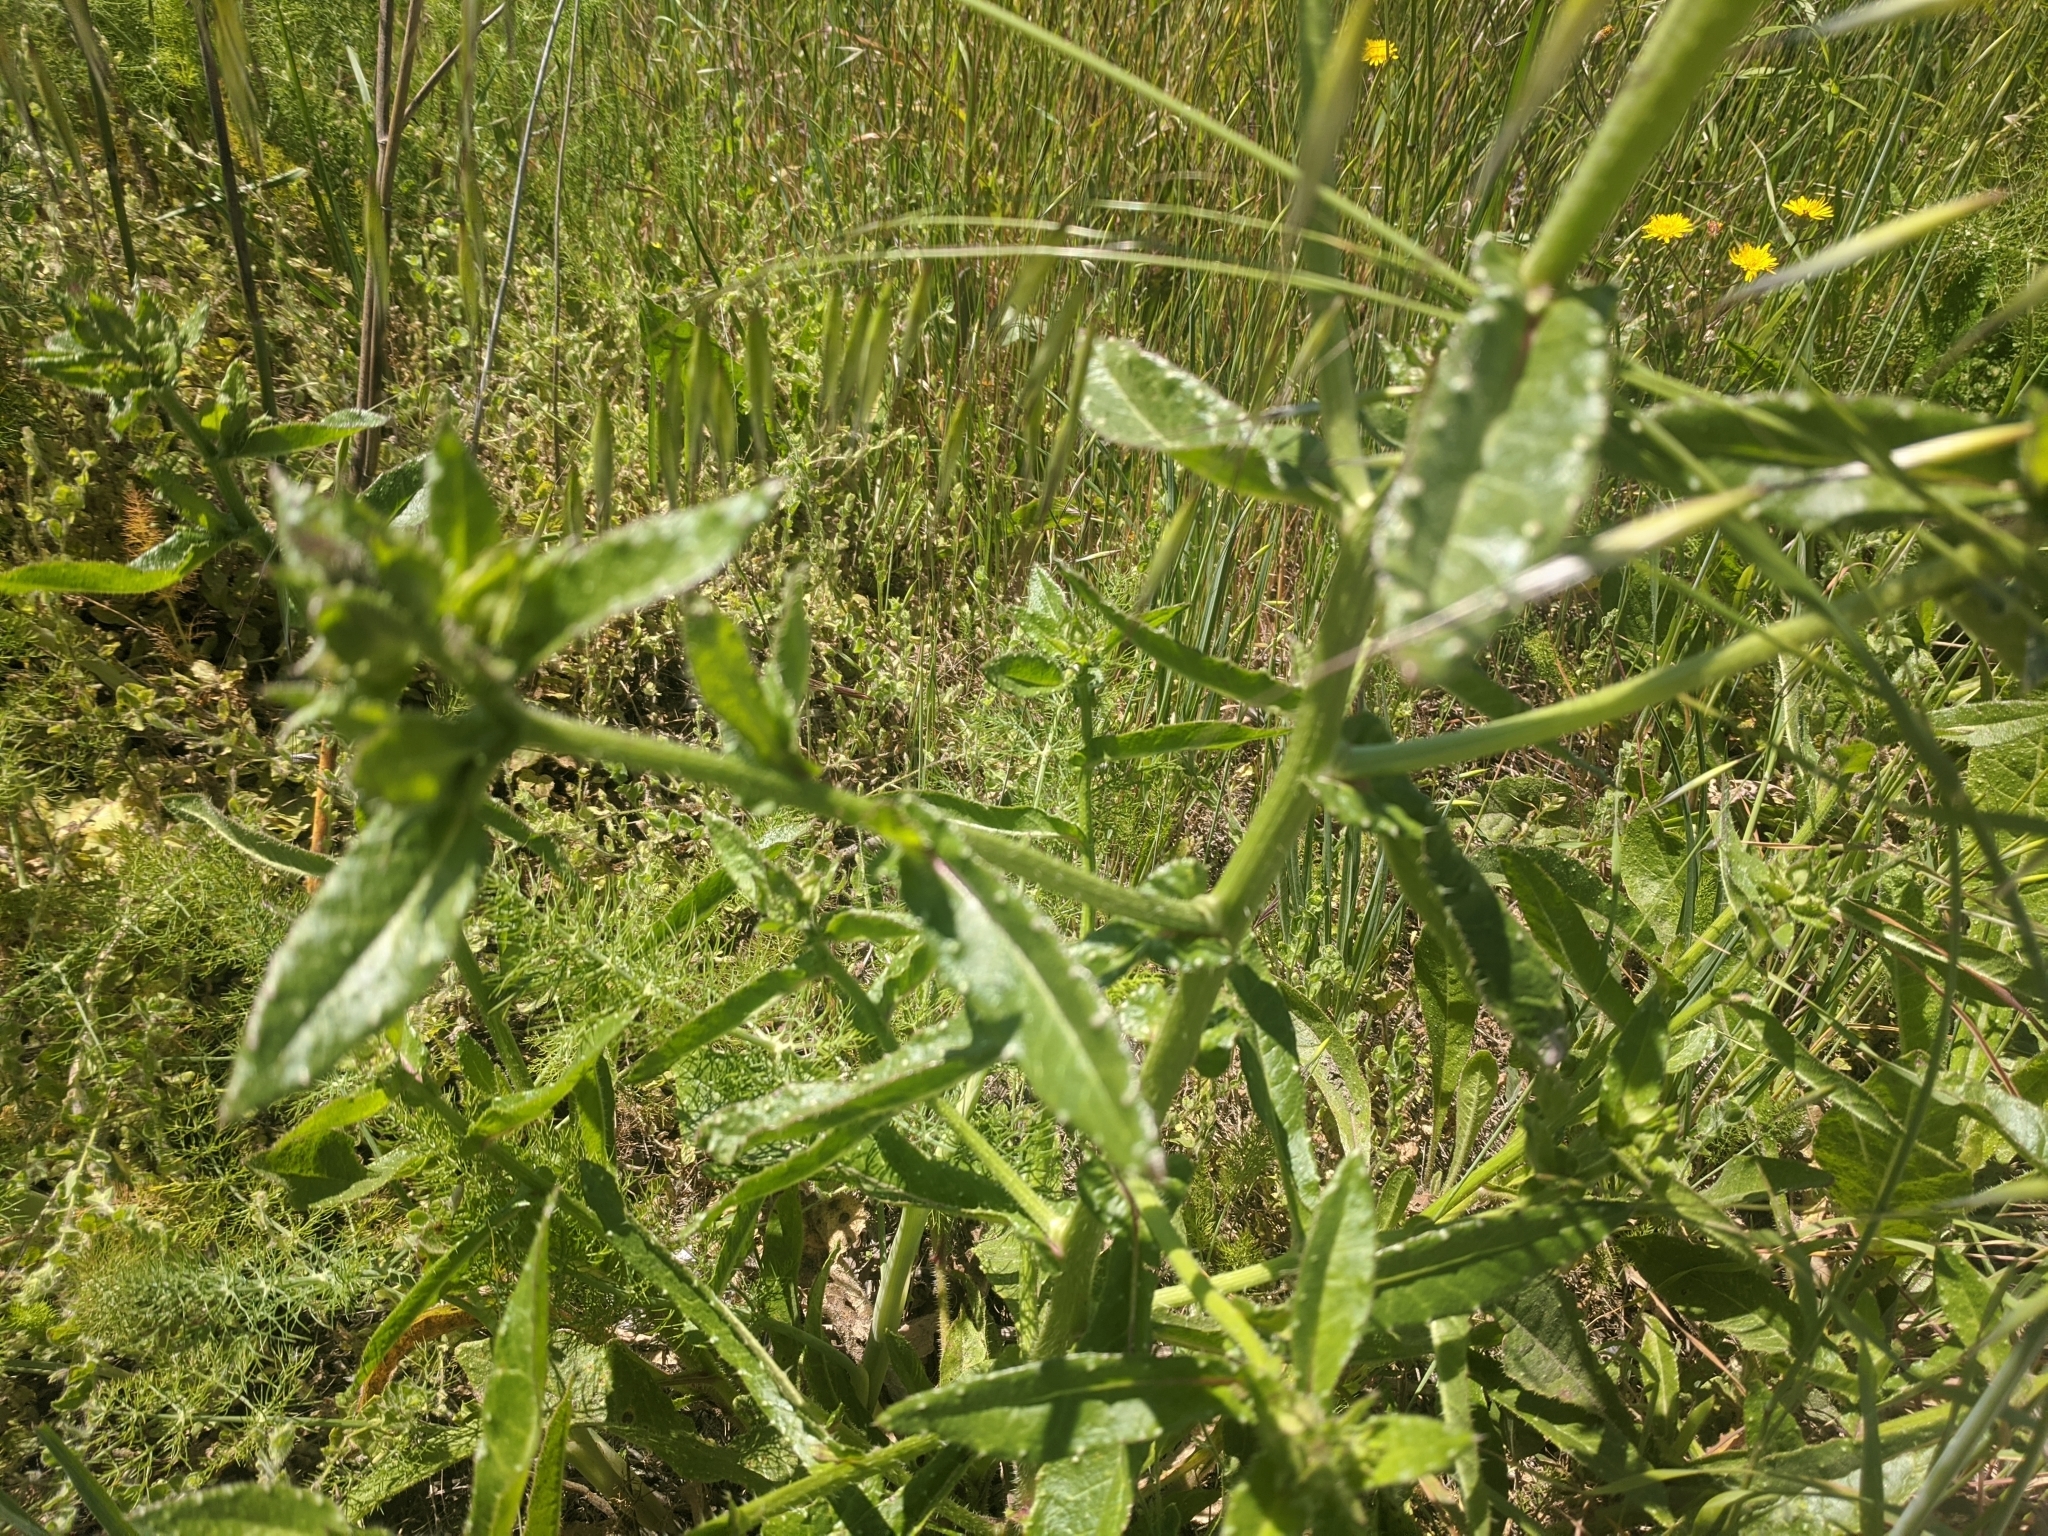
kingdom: Plantae
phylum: Tracheophyta
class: Magnoliopsida
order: Asterales
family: Asteraceae
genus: Helminthotheca
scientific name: Helminthotheca echioides
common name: Ox-tongue
